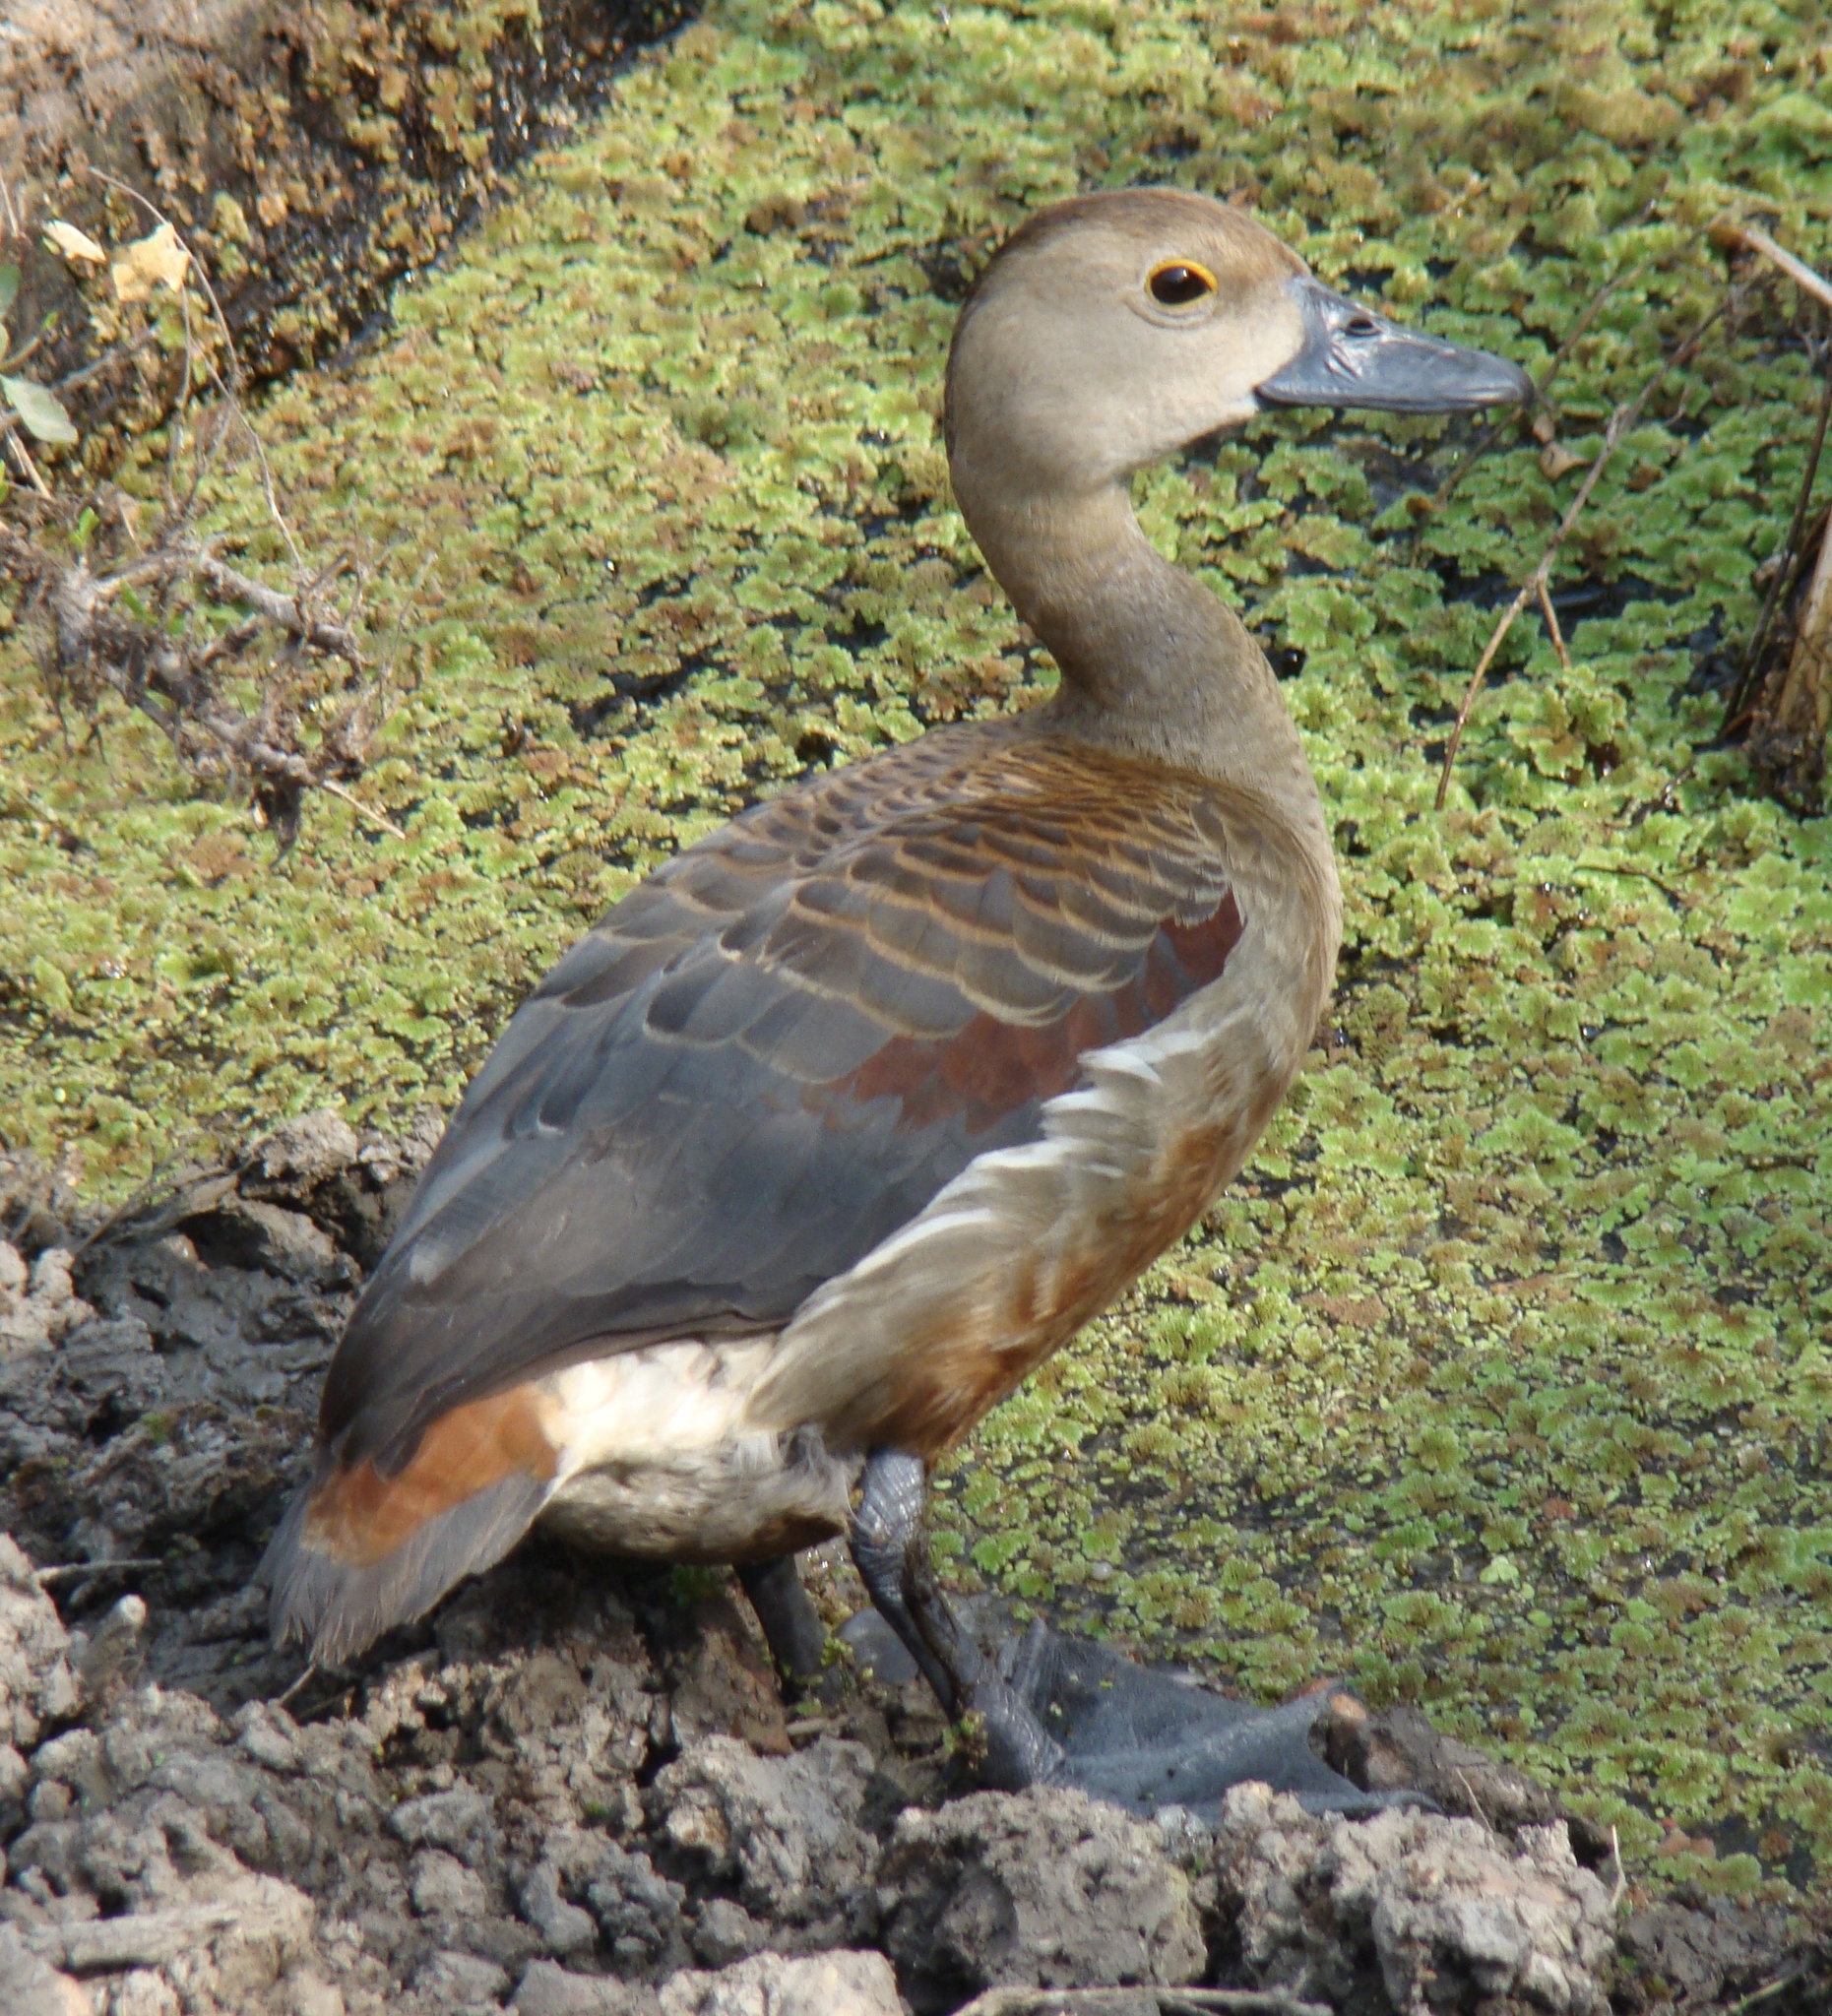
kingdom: Animalia
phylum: Chordata
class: Aves
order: Anseriformes
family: Anatidae
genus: Dendrocygna
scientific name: Dendrocygna javanica
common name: Lesser whistling-duck
